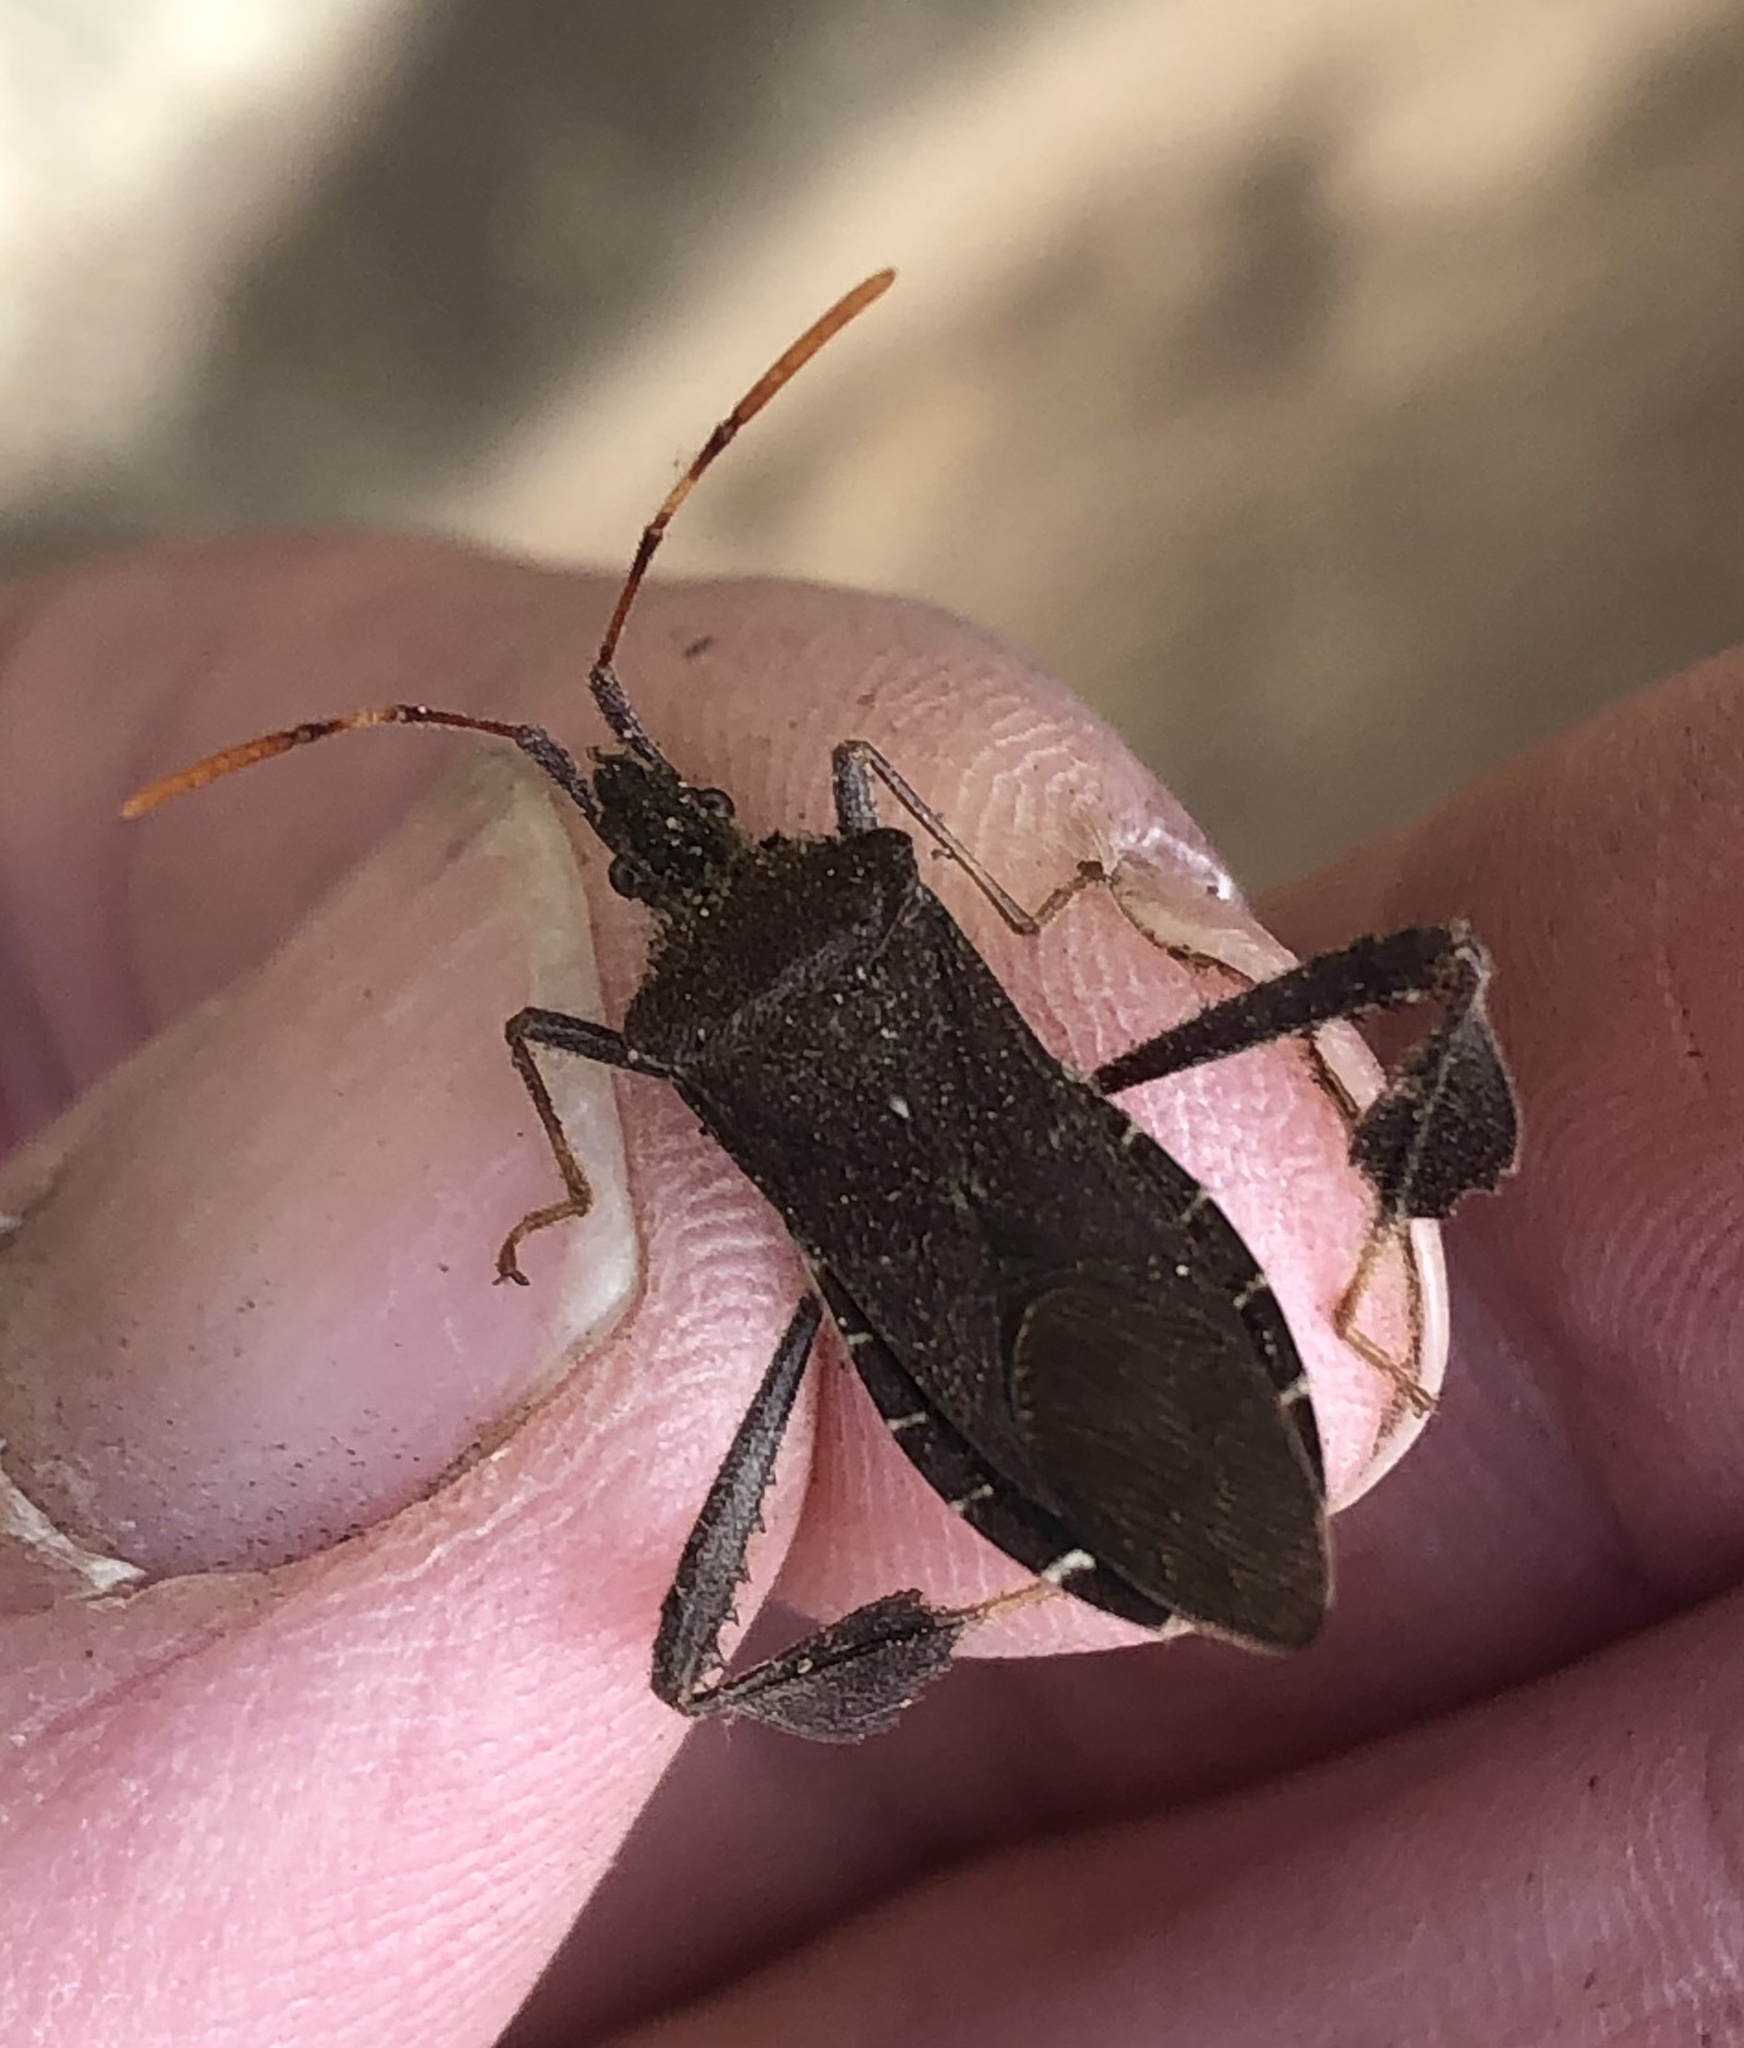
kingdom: Animalia
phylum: Arthropoda
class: Insecta
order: Hemiptera
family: Coreidae
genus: Leptoglossus
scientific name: Leptoglossus oppositus
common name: Northern leaf-footed bug
